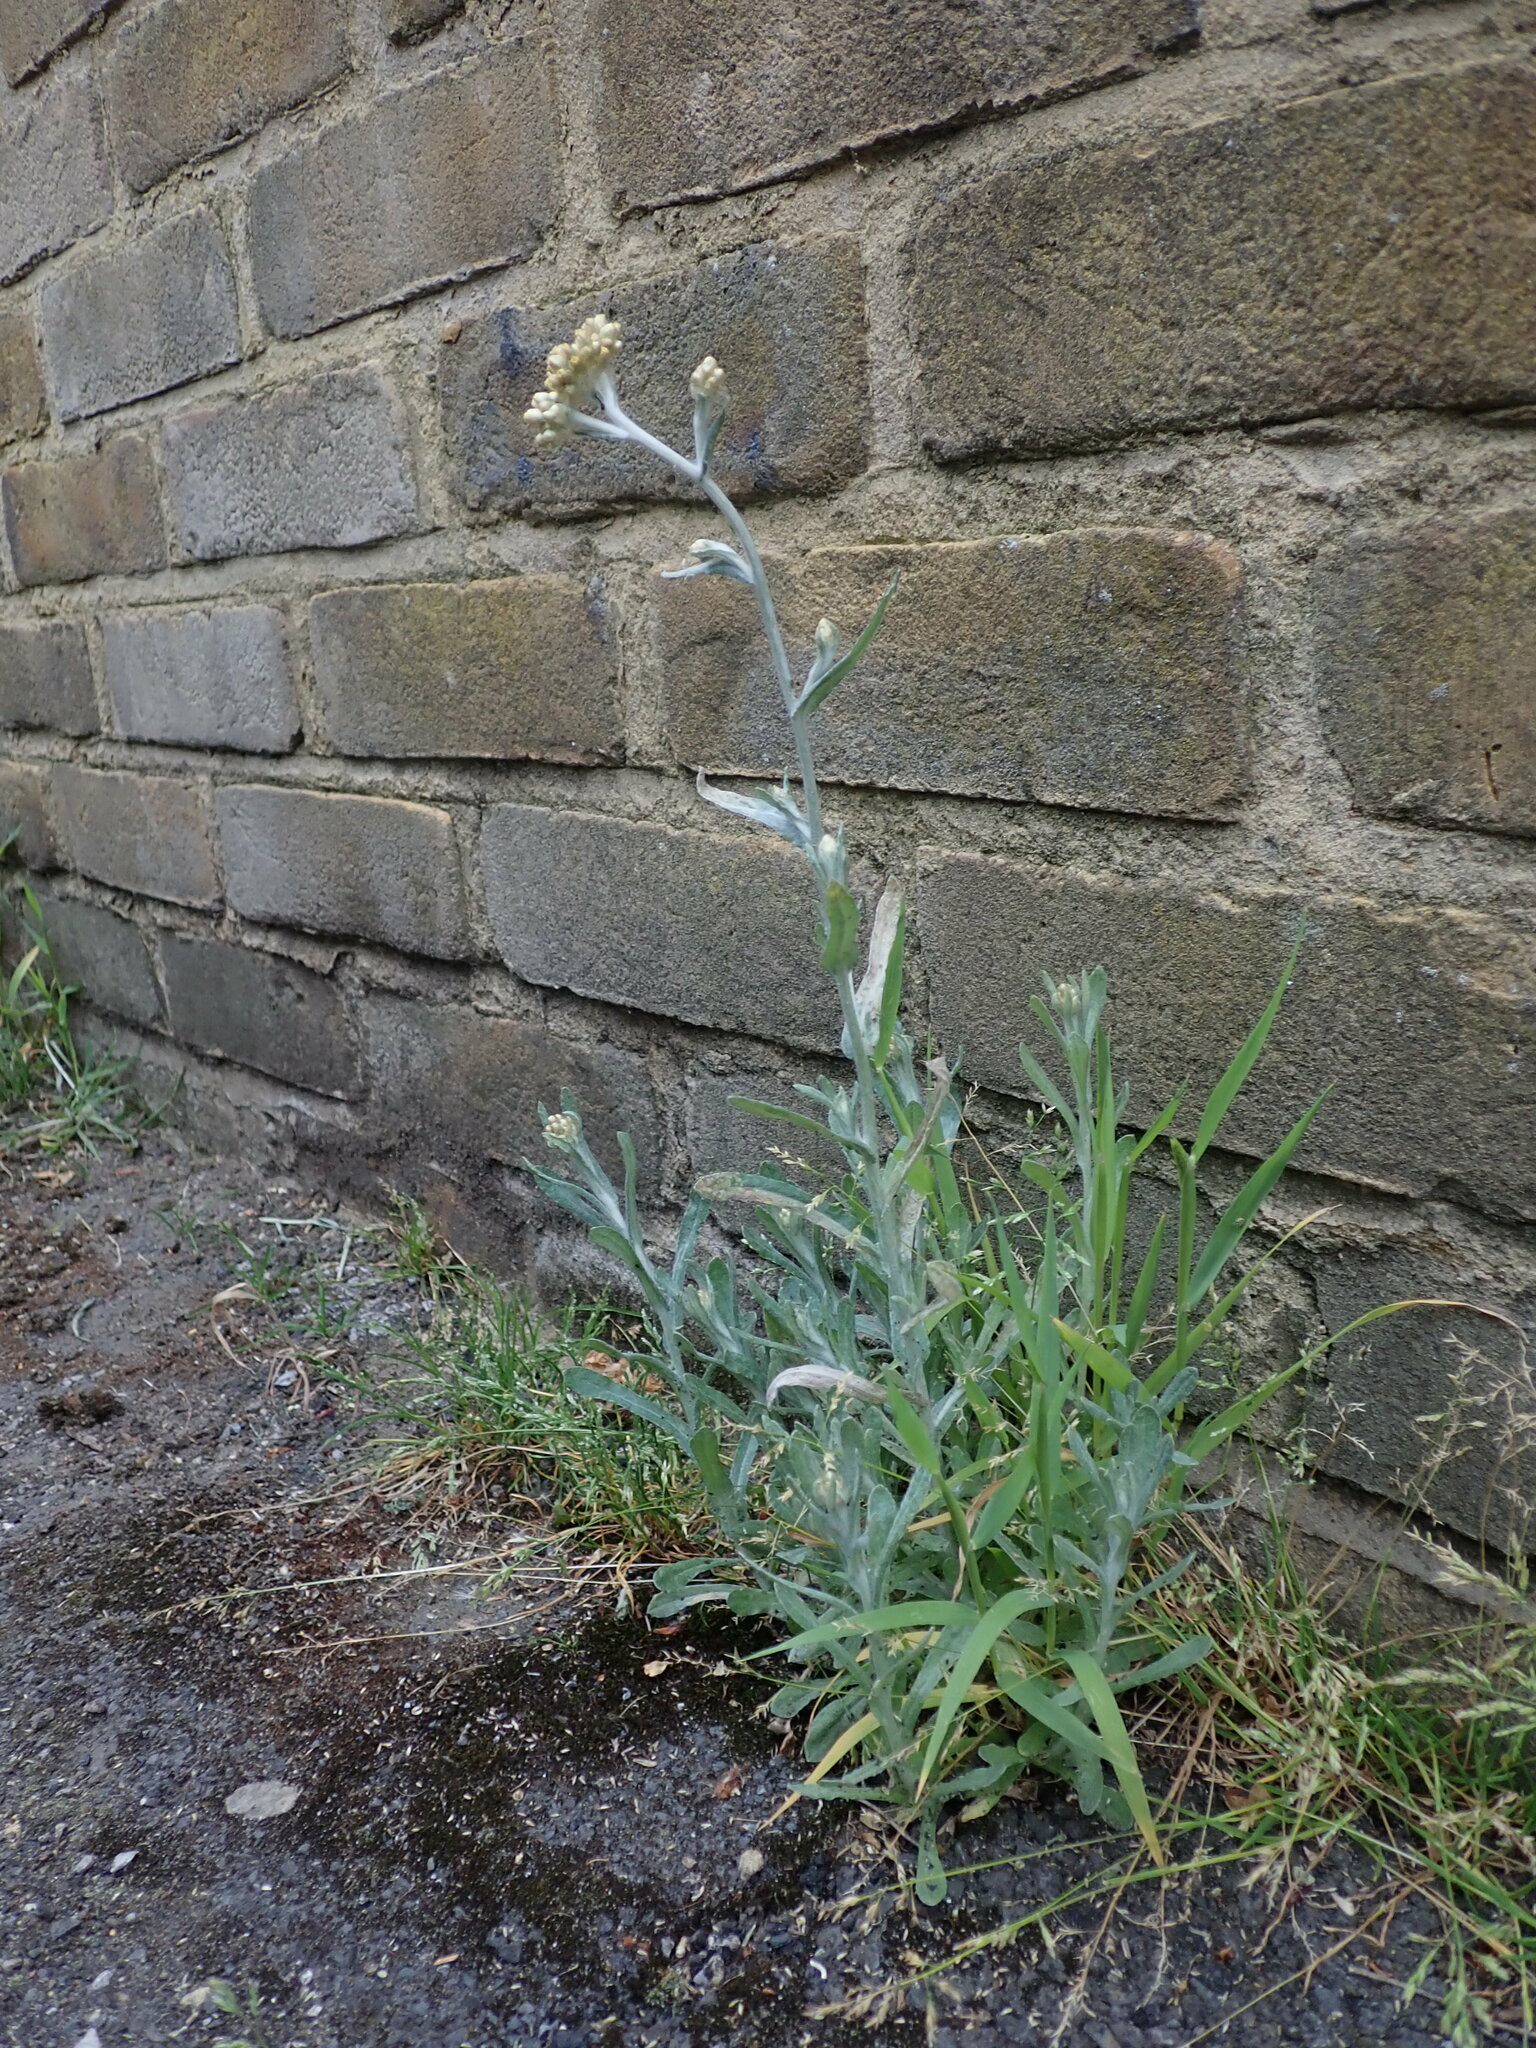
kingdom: Plantae
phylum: Tracheophyta
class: Magnoliopsida
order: Asterales
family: Asteraceae
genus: Helichrysum
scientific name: Helichrysum luteoalbum
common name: Daisy
